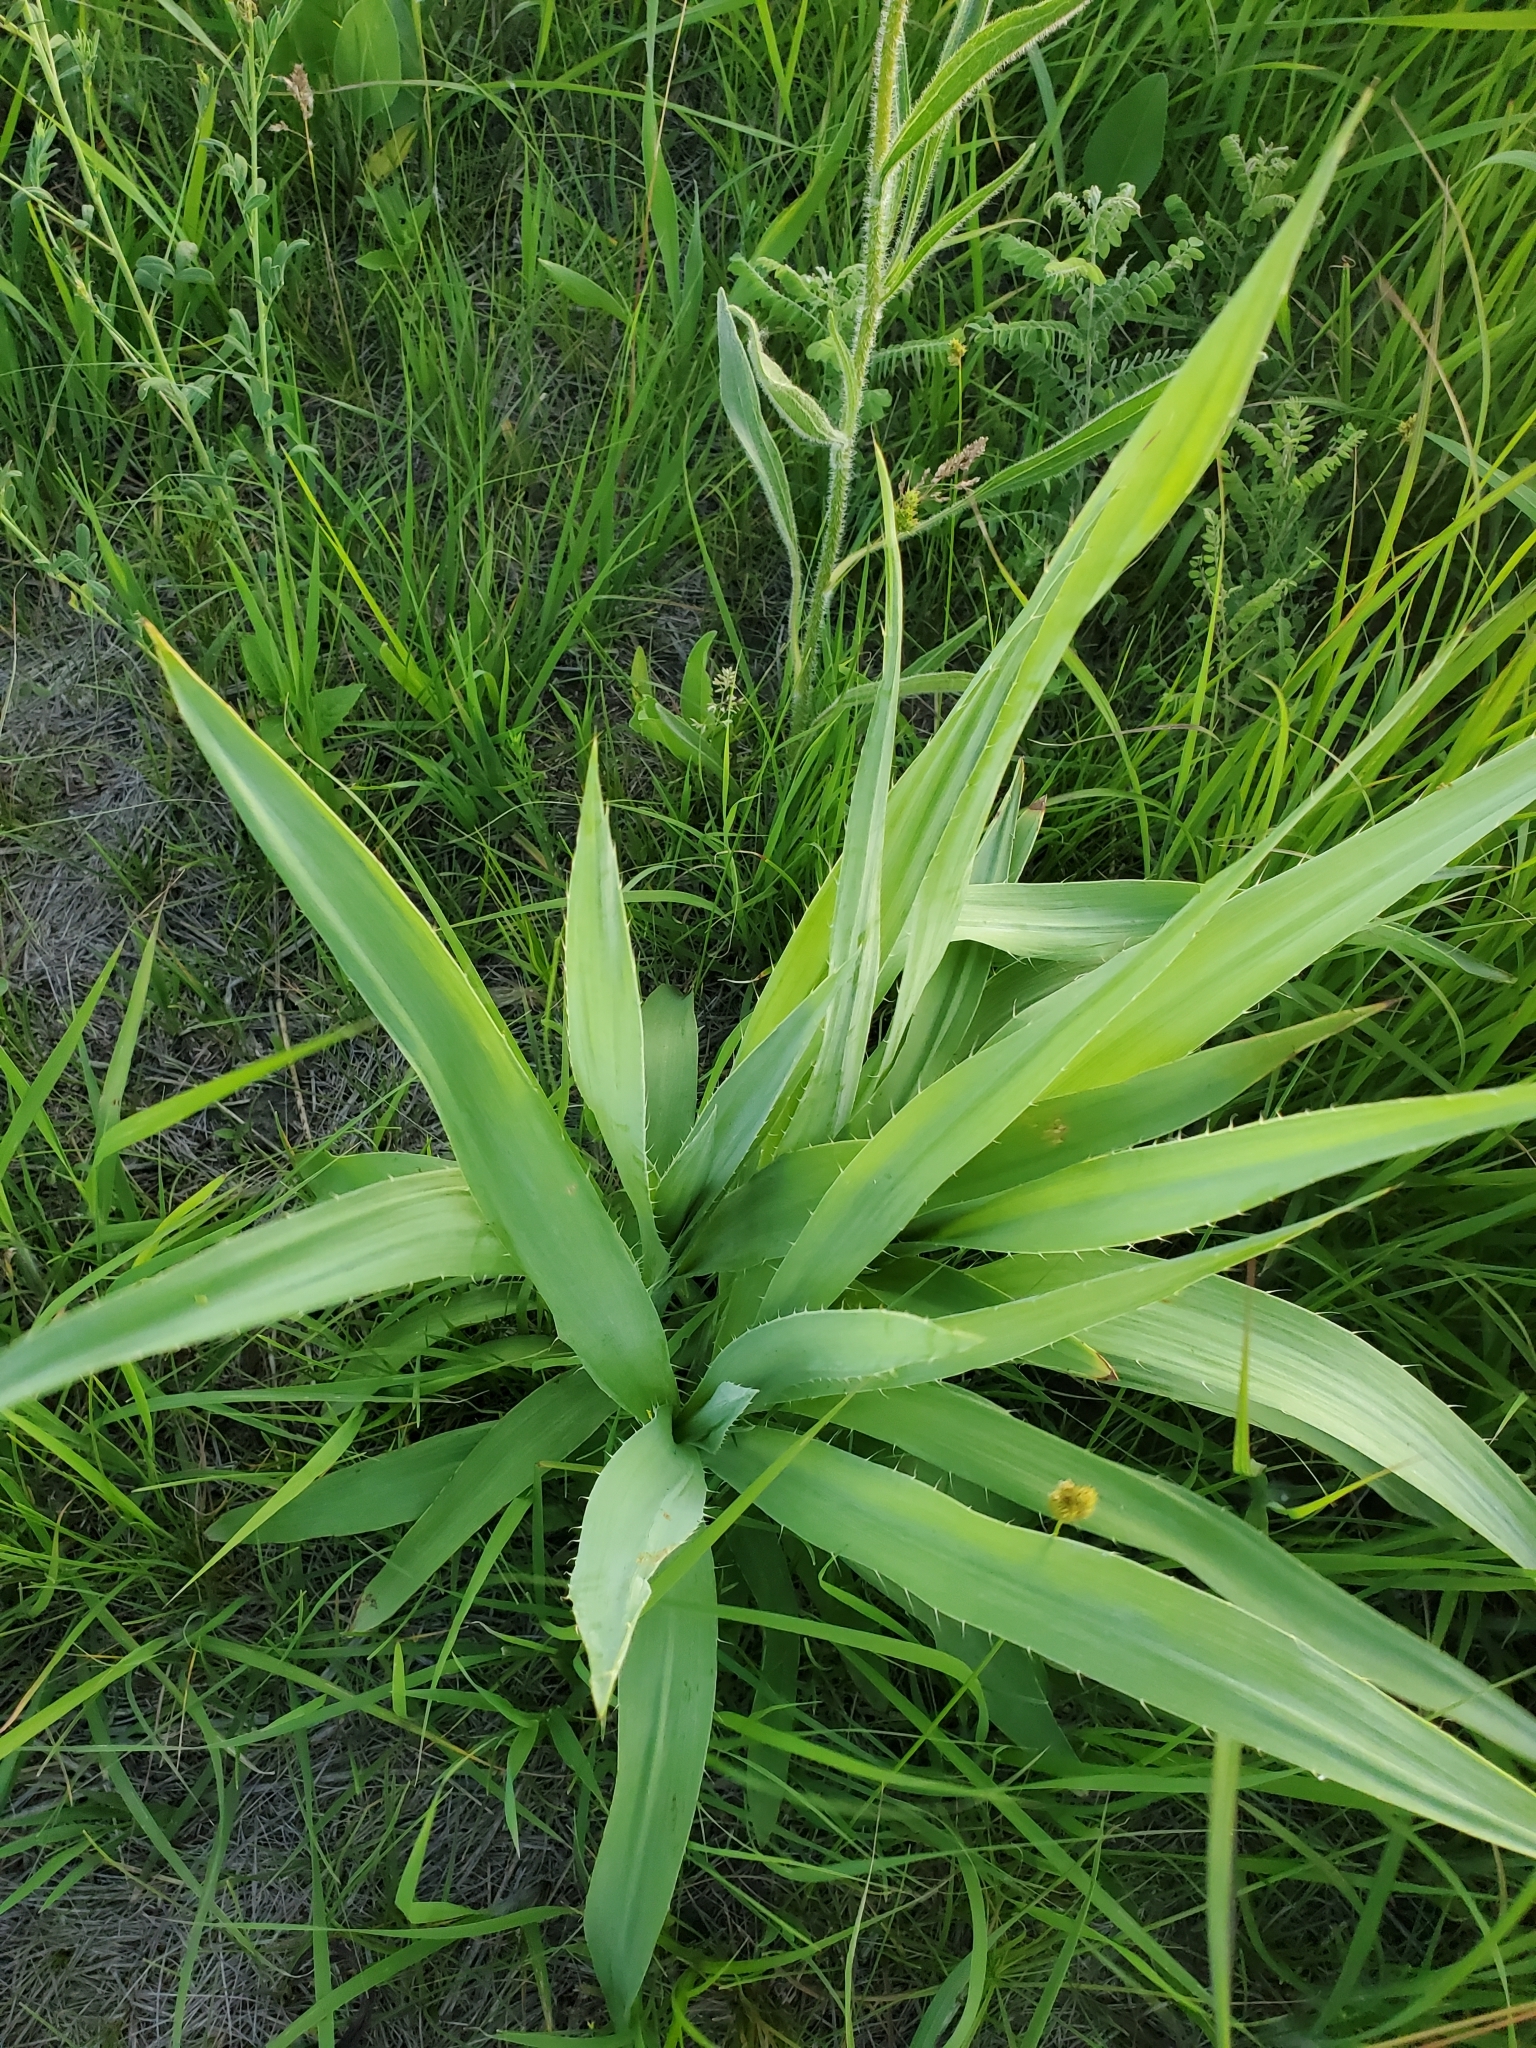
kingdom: Plantae
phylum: Tracheophyta
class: Magnoliopsida
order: Apiales
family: Apiaceae
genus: Eryngium
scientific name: Eryngium yuccifolium
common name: Button eryngo
